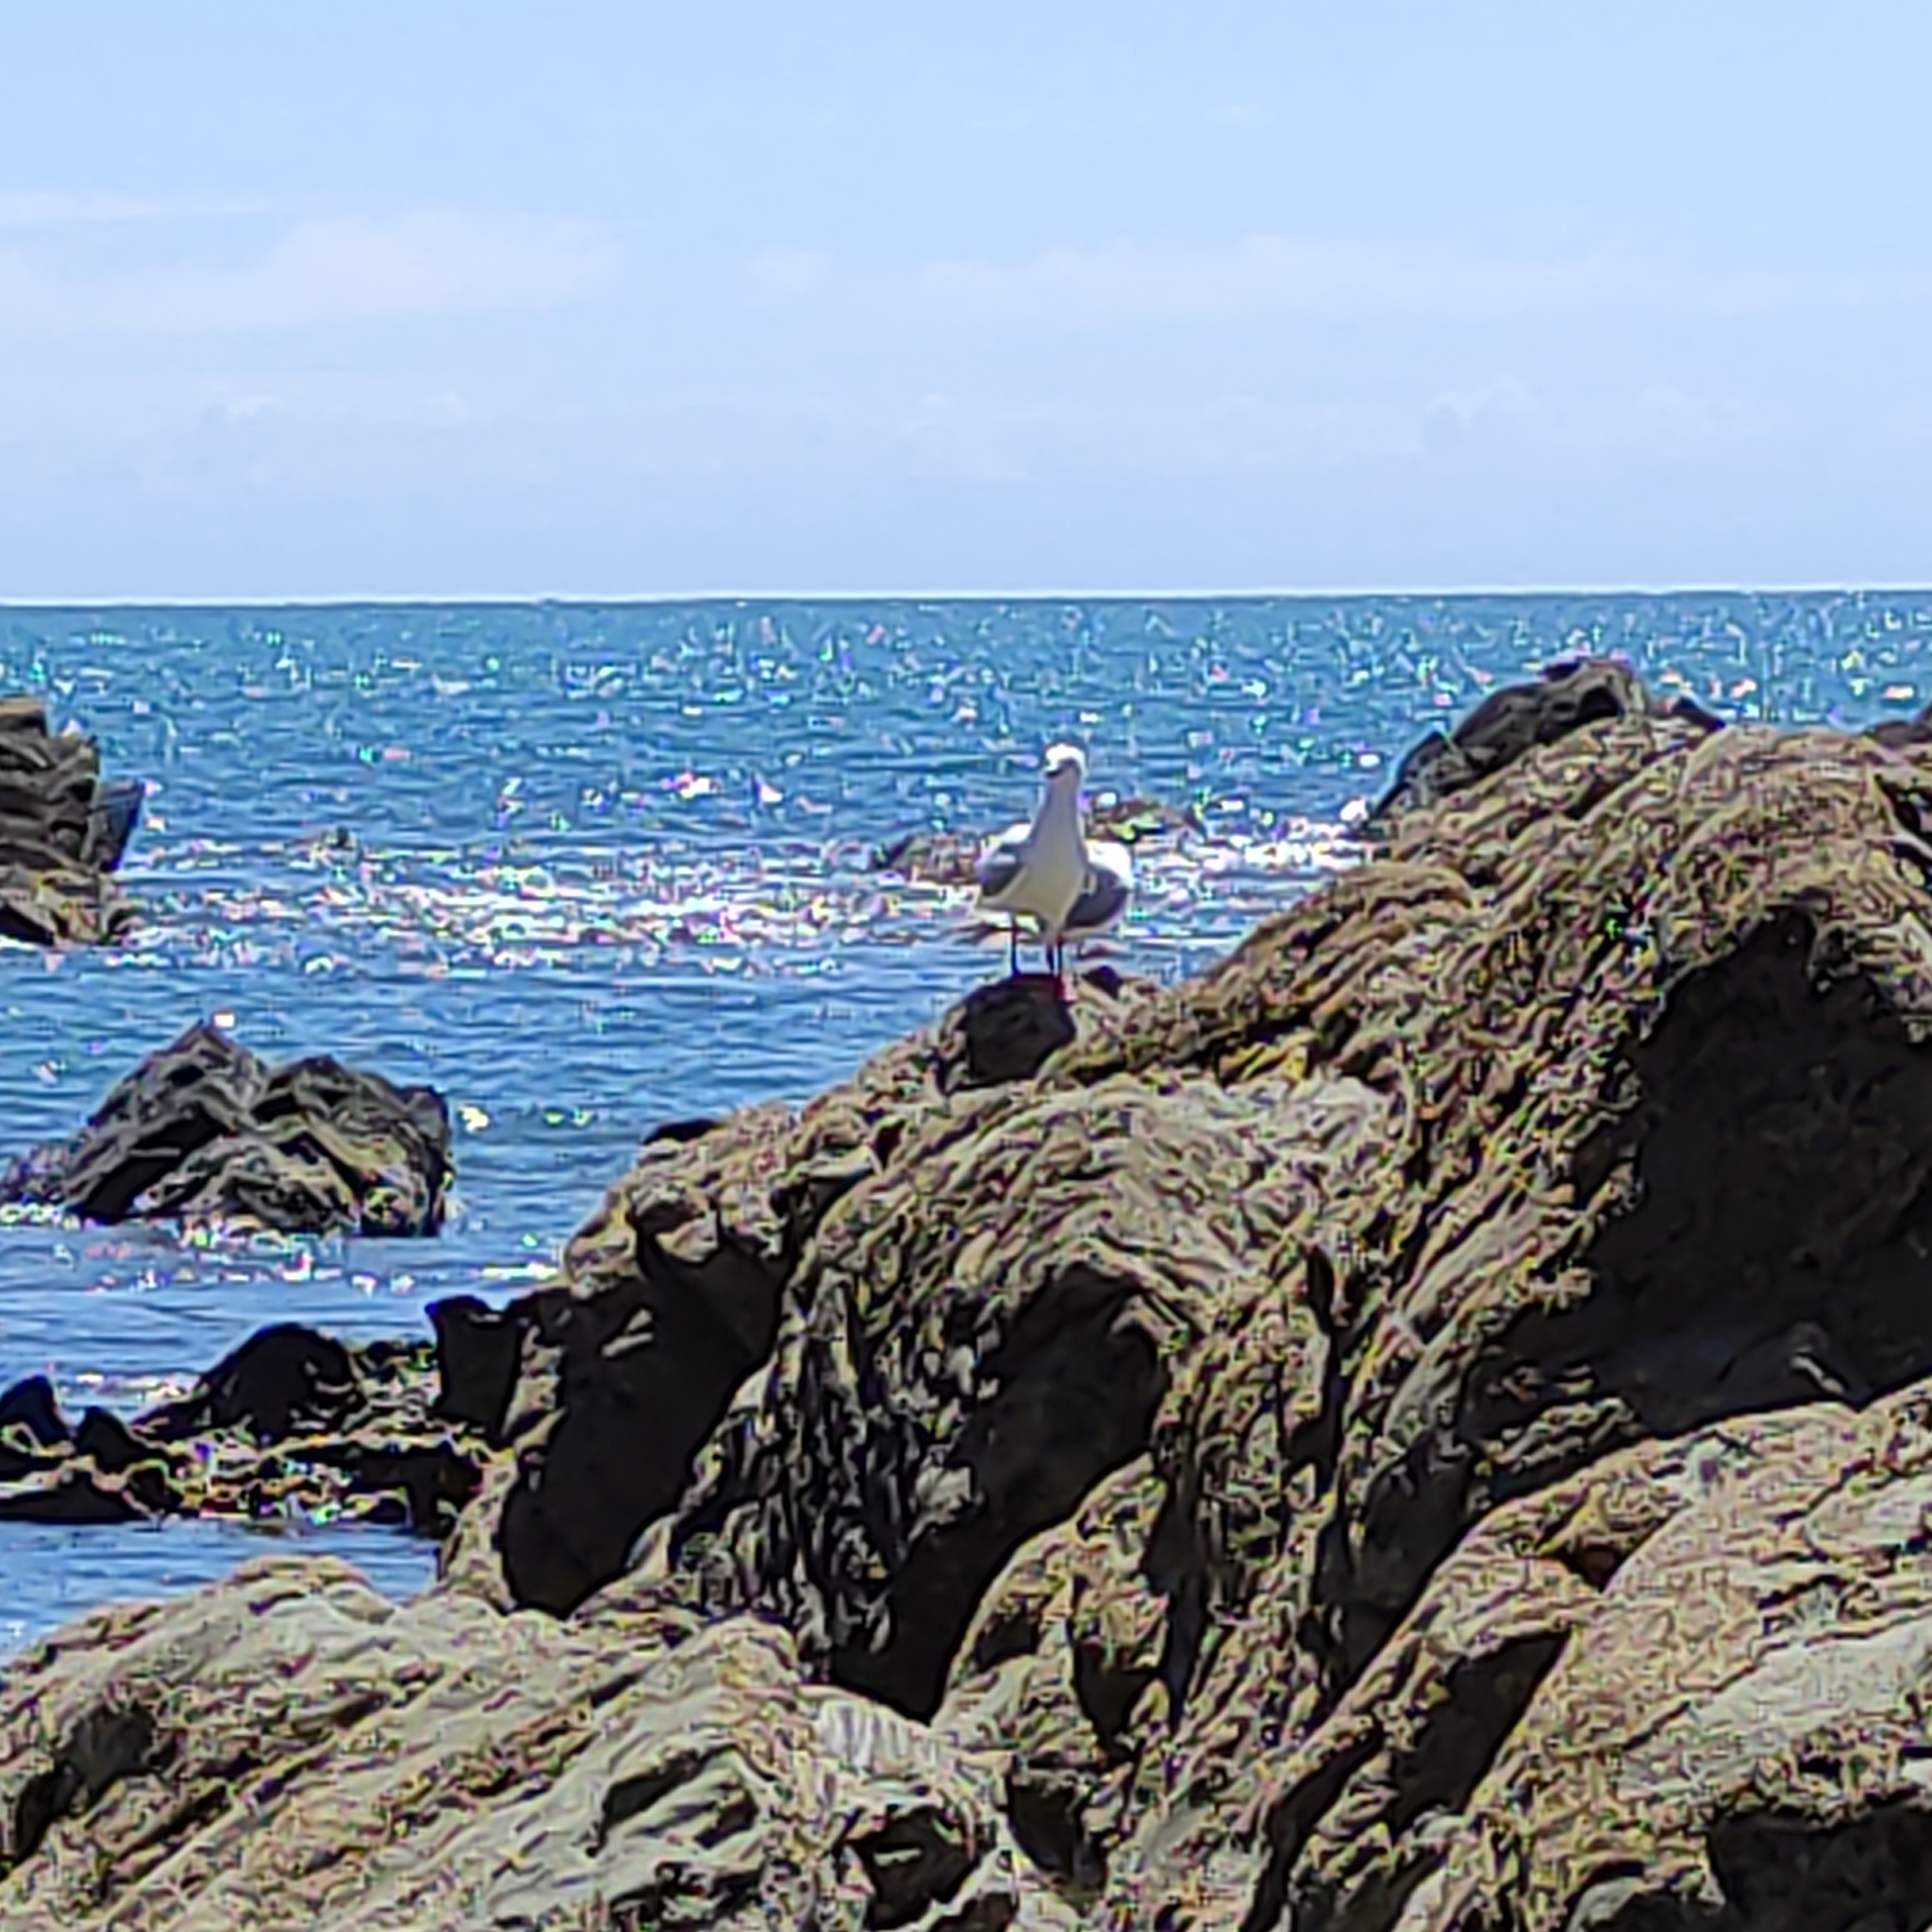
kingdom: Animalia
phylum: Chordata
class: Aves
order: Charadriiformes
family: Laridae
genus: Chroicocephalus
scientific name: Chroicocephalus novaehollandiae
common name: Silver gull
